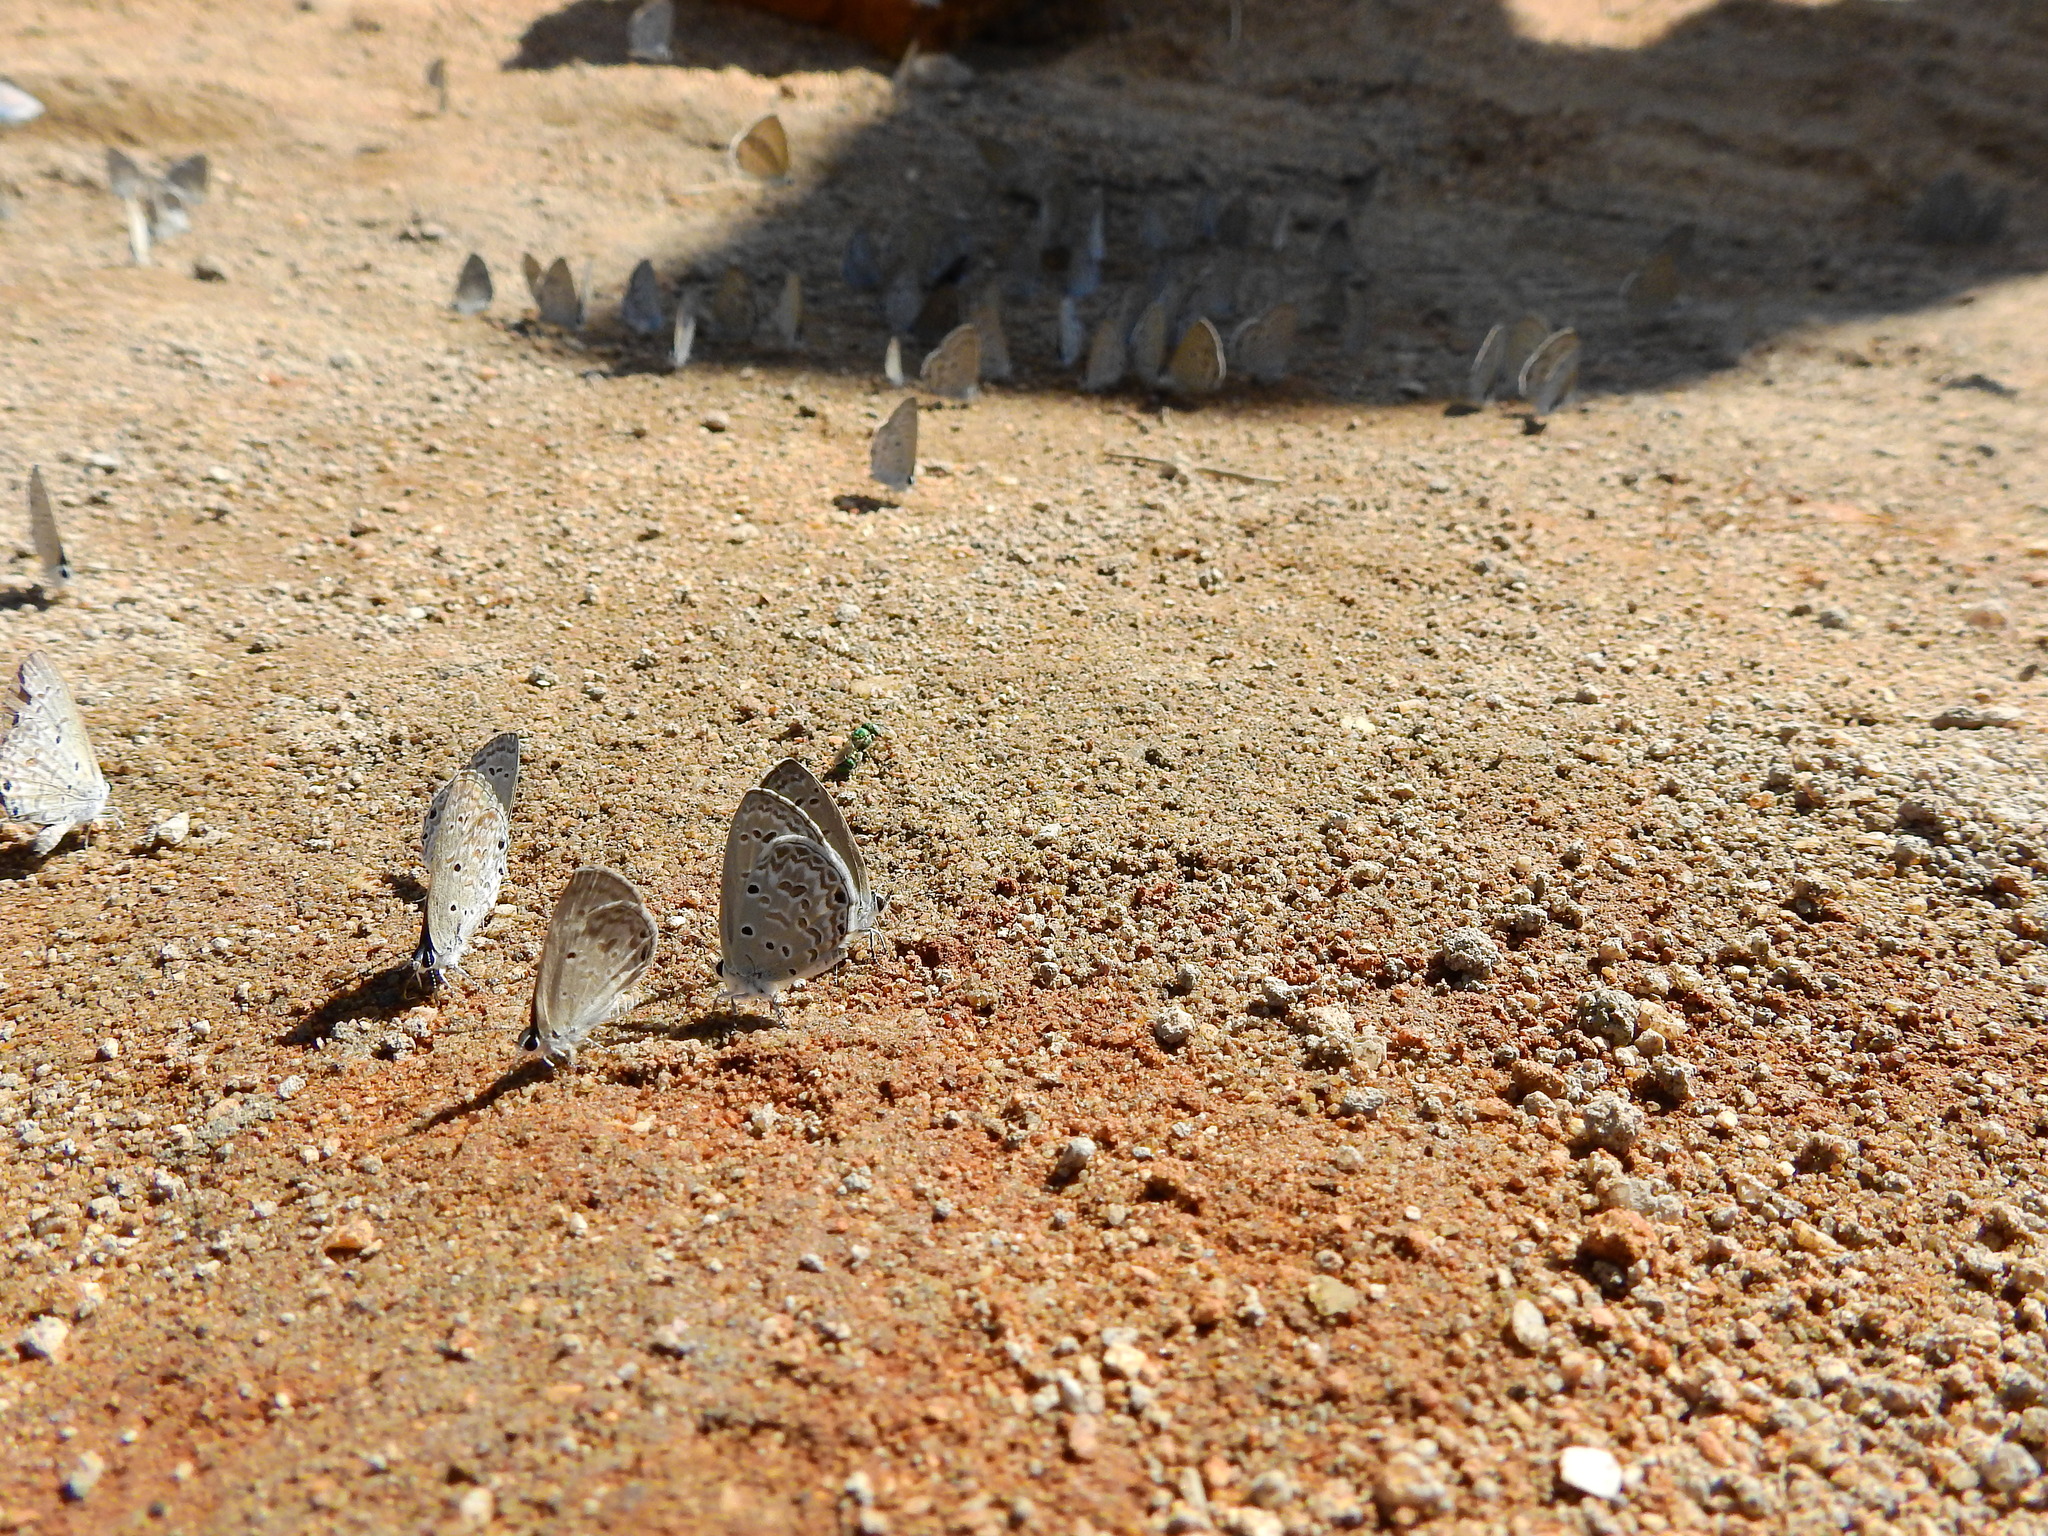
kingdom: Animalia
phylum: Arthropoda
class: Insecta
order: Lepidoptera
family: Lycaenidae
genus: Chilades
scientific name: Chilades laius
